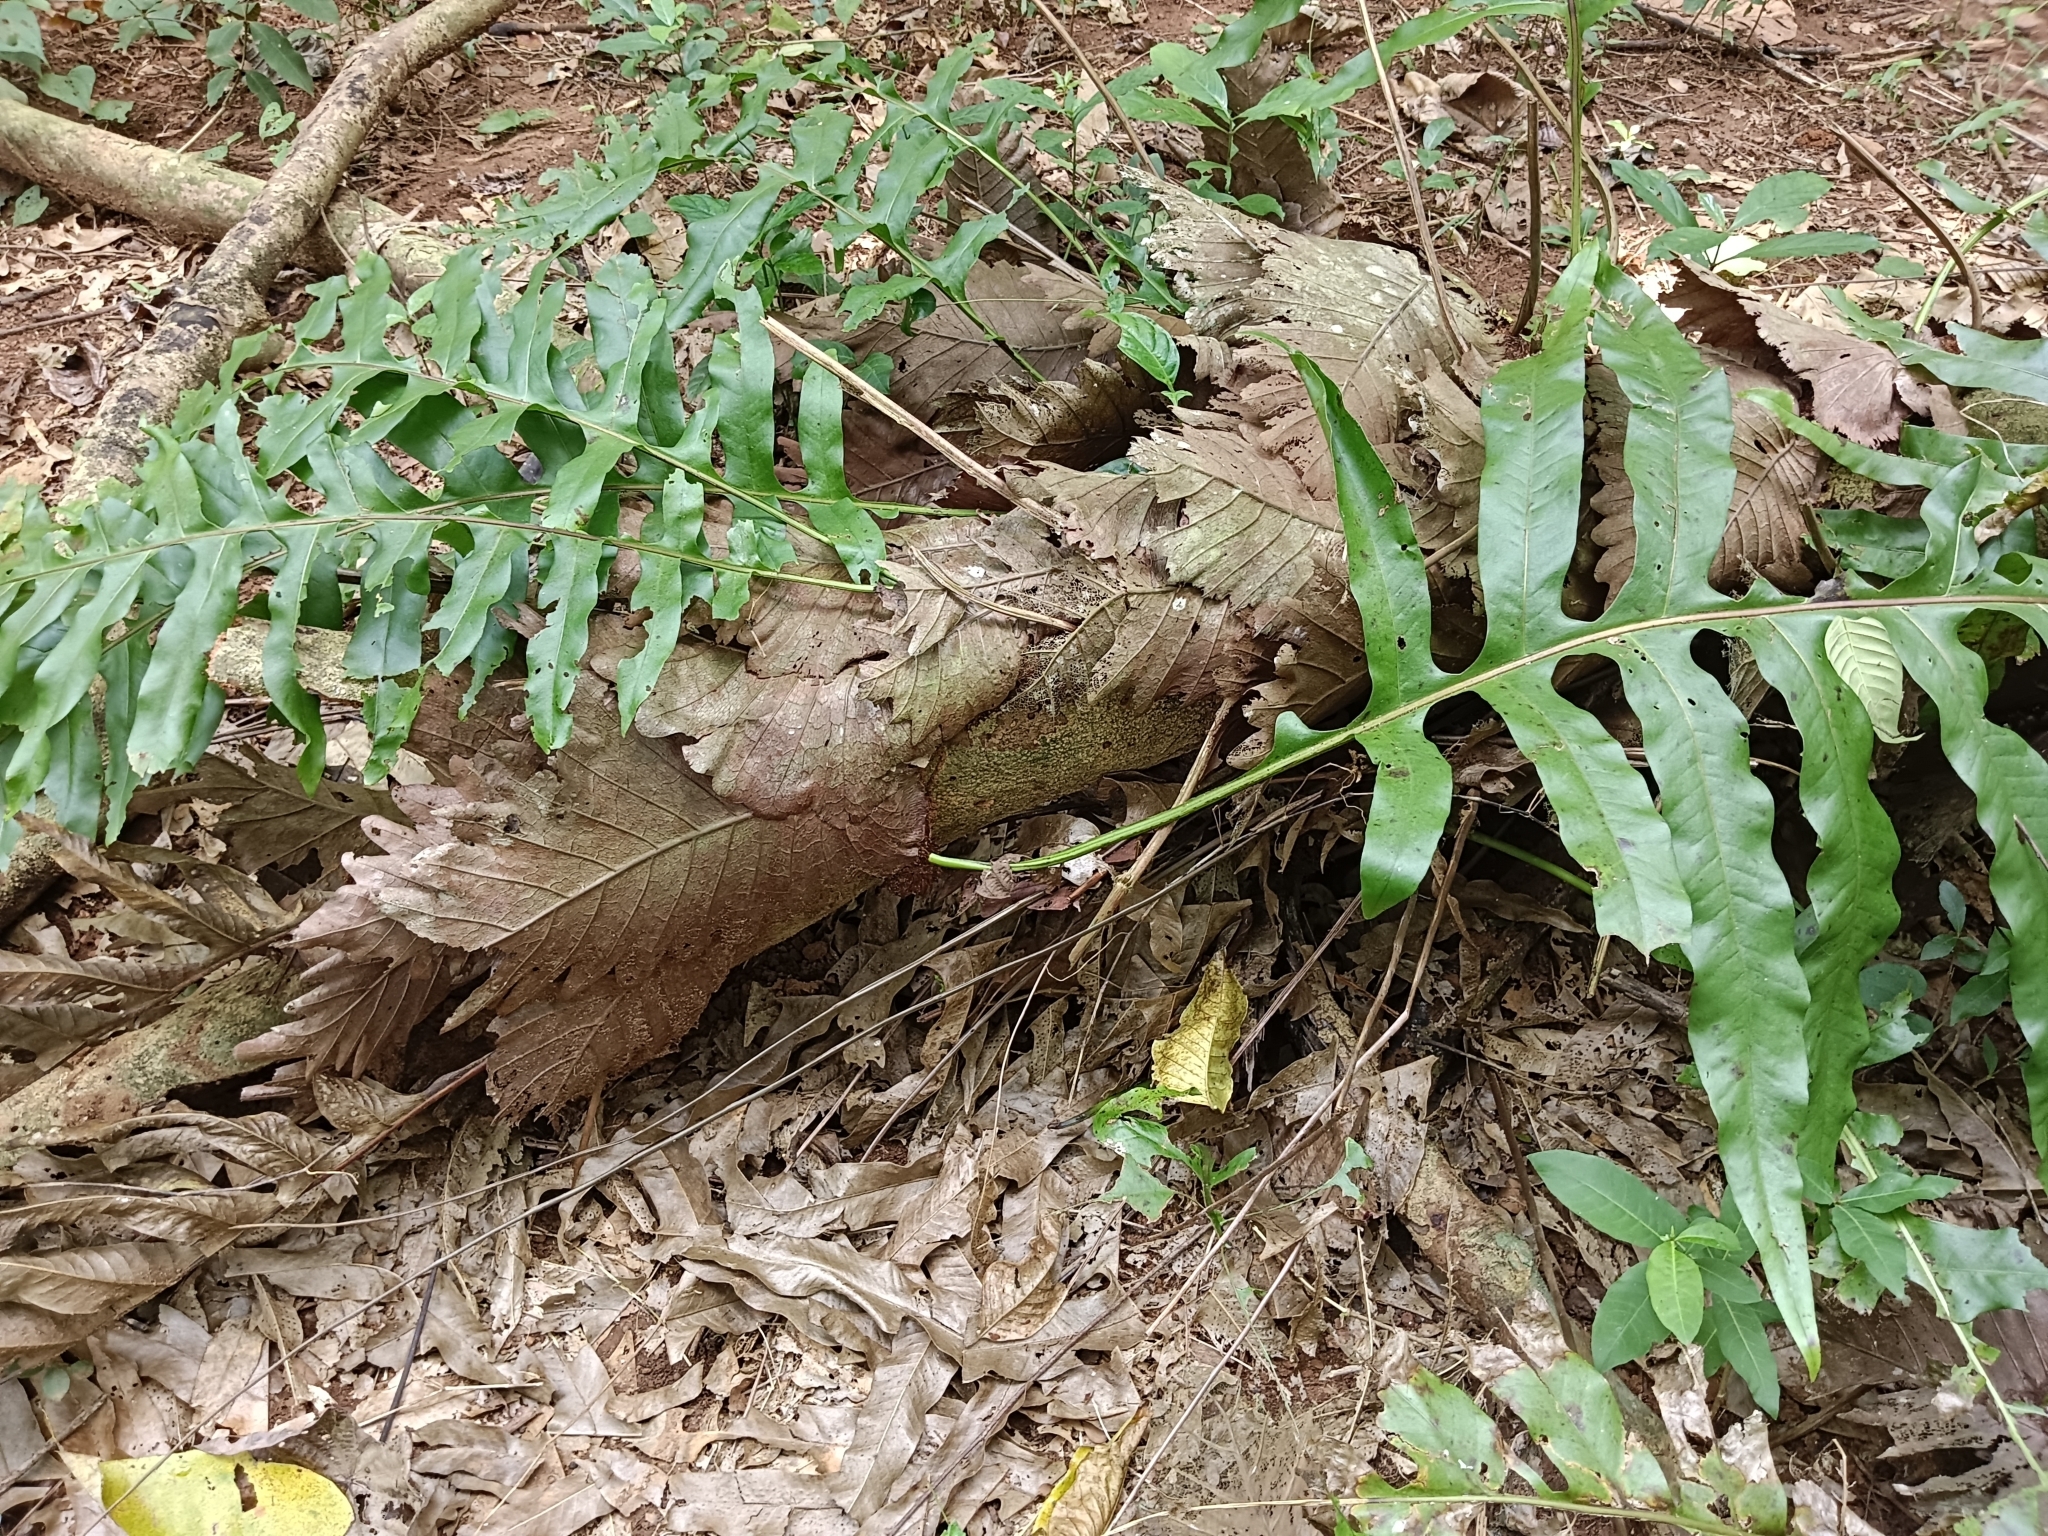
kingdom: Plantae
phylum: Tracheophyta
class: Polypodiopsida
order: Polypodiales
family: Polypodiaceae
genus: Drynaria
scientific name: Drynaria quercifolia
